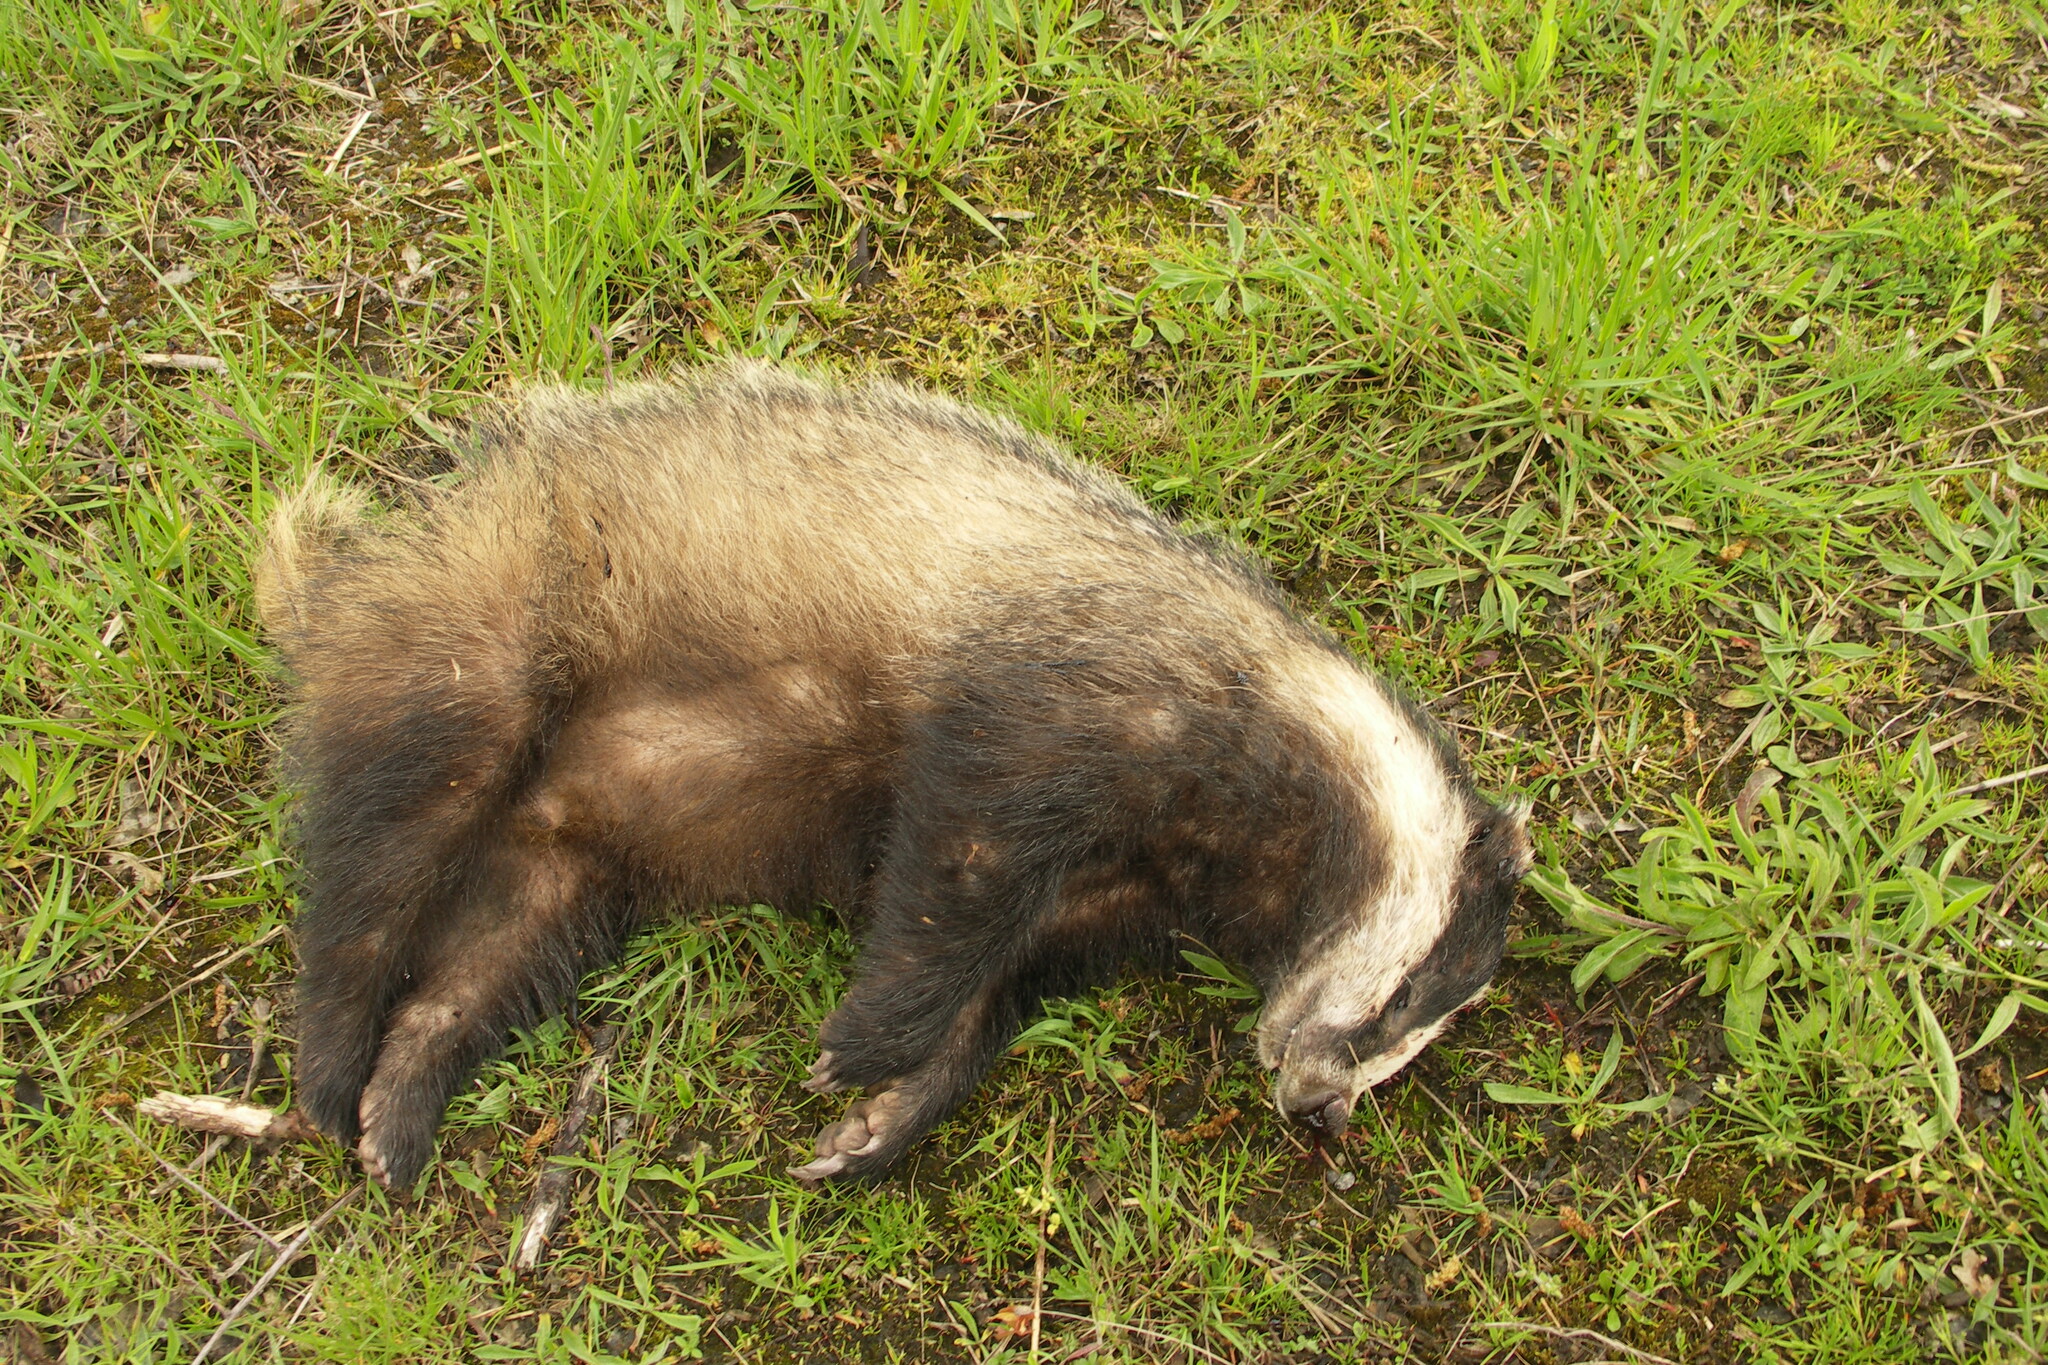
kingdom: Animalia
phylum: Chordata
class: Mammalia
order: Carnivora
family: Mustelidae
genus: Meles
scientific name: Meles meles
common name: Eurasian badger
